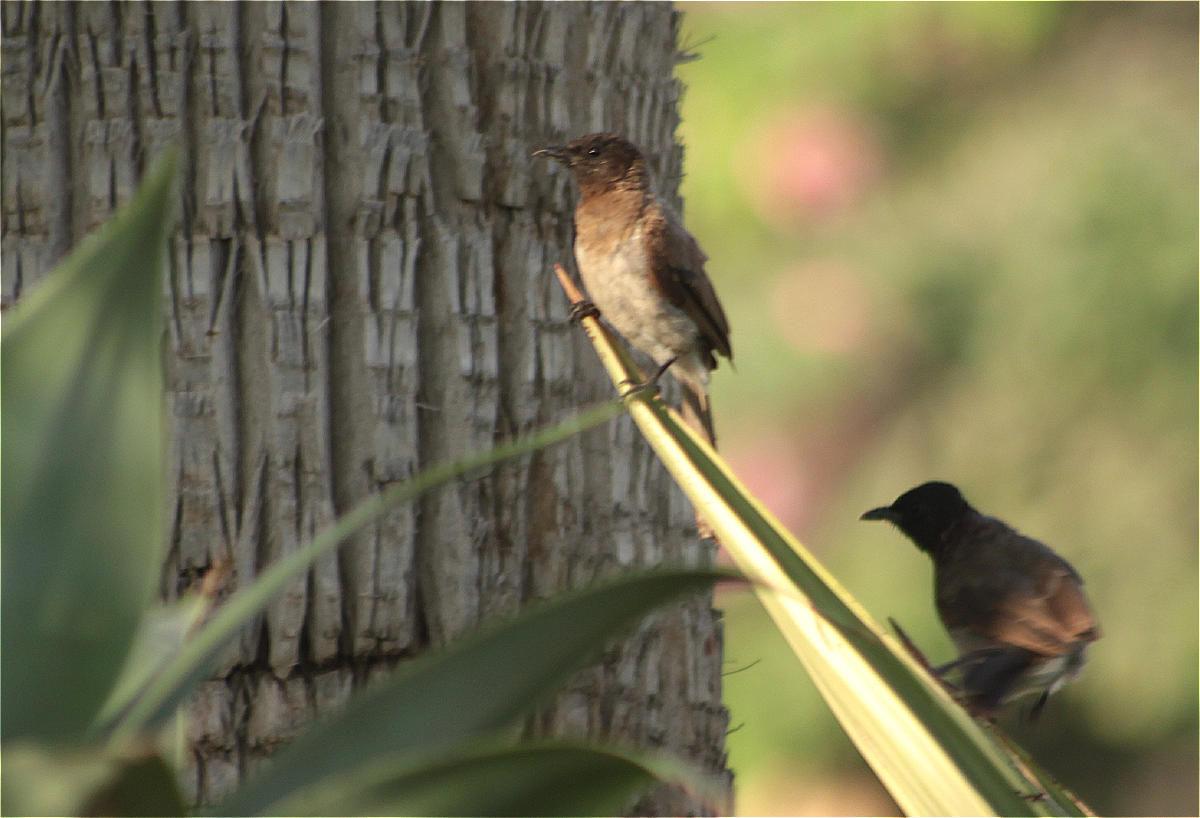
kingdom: Animalia
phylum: Chordata
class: Aves
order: Passeriformes
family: Pycnonotidae
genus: Pycnonotus
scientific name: Pycnonotus barbatus
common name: Common bulbul
